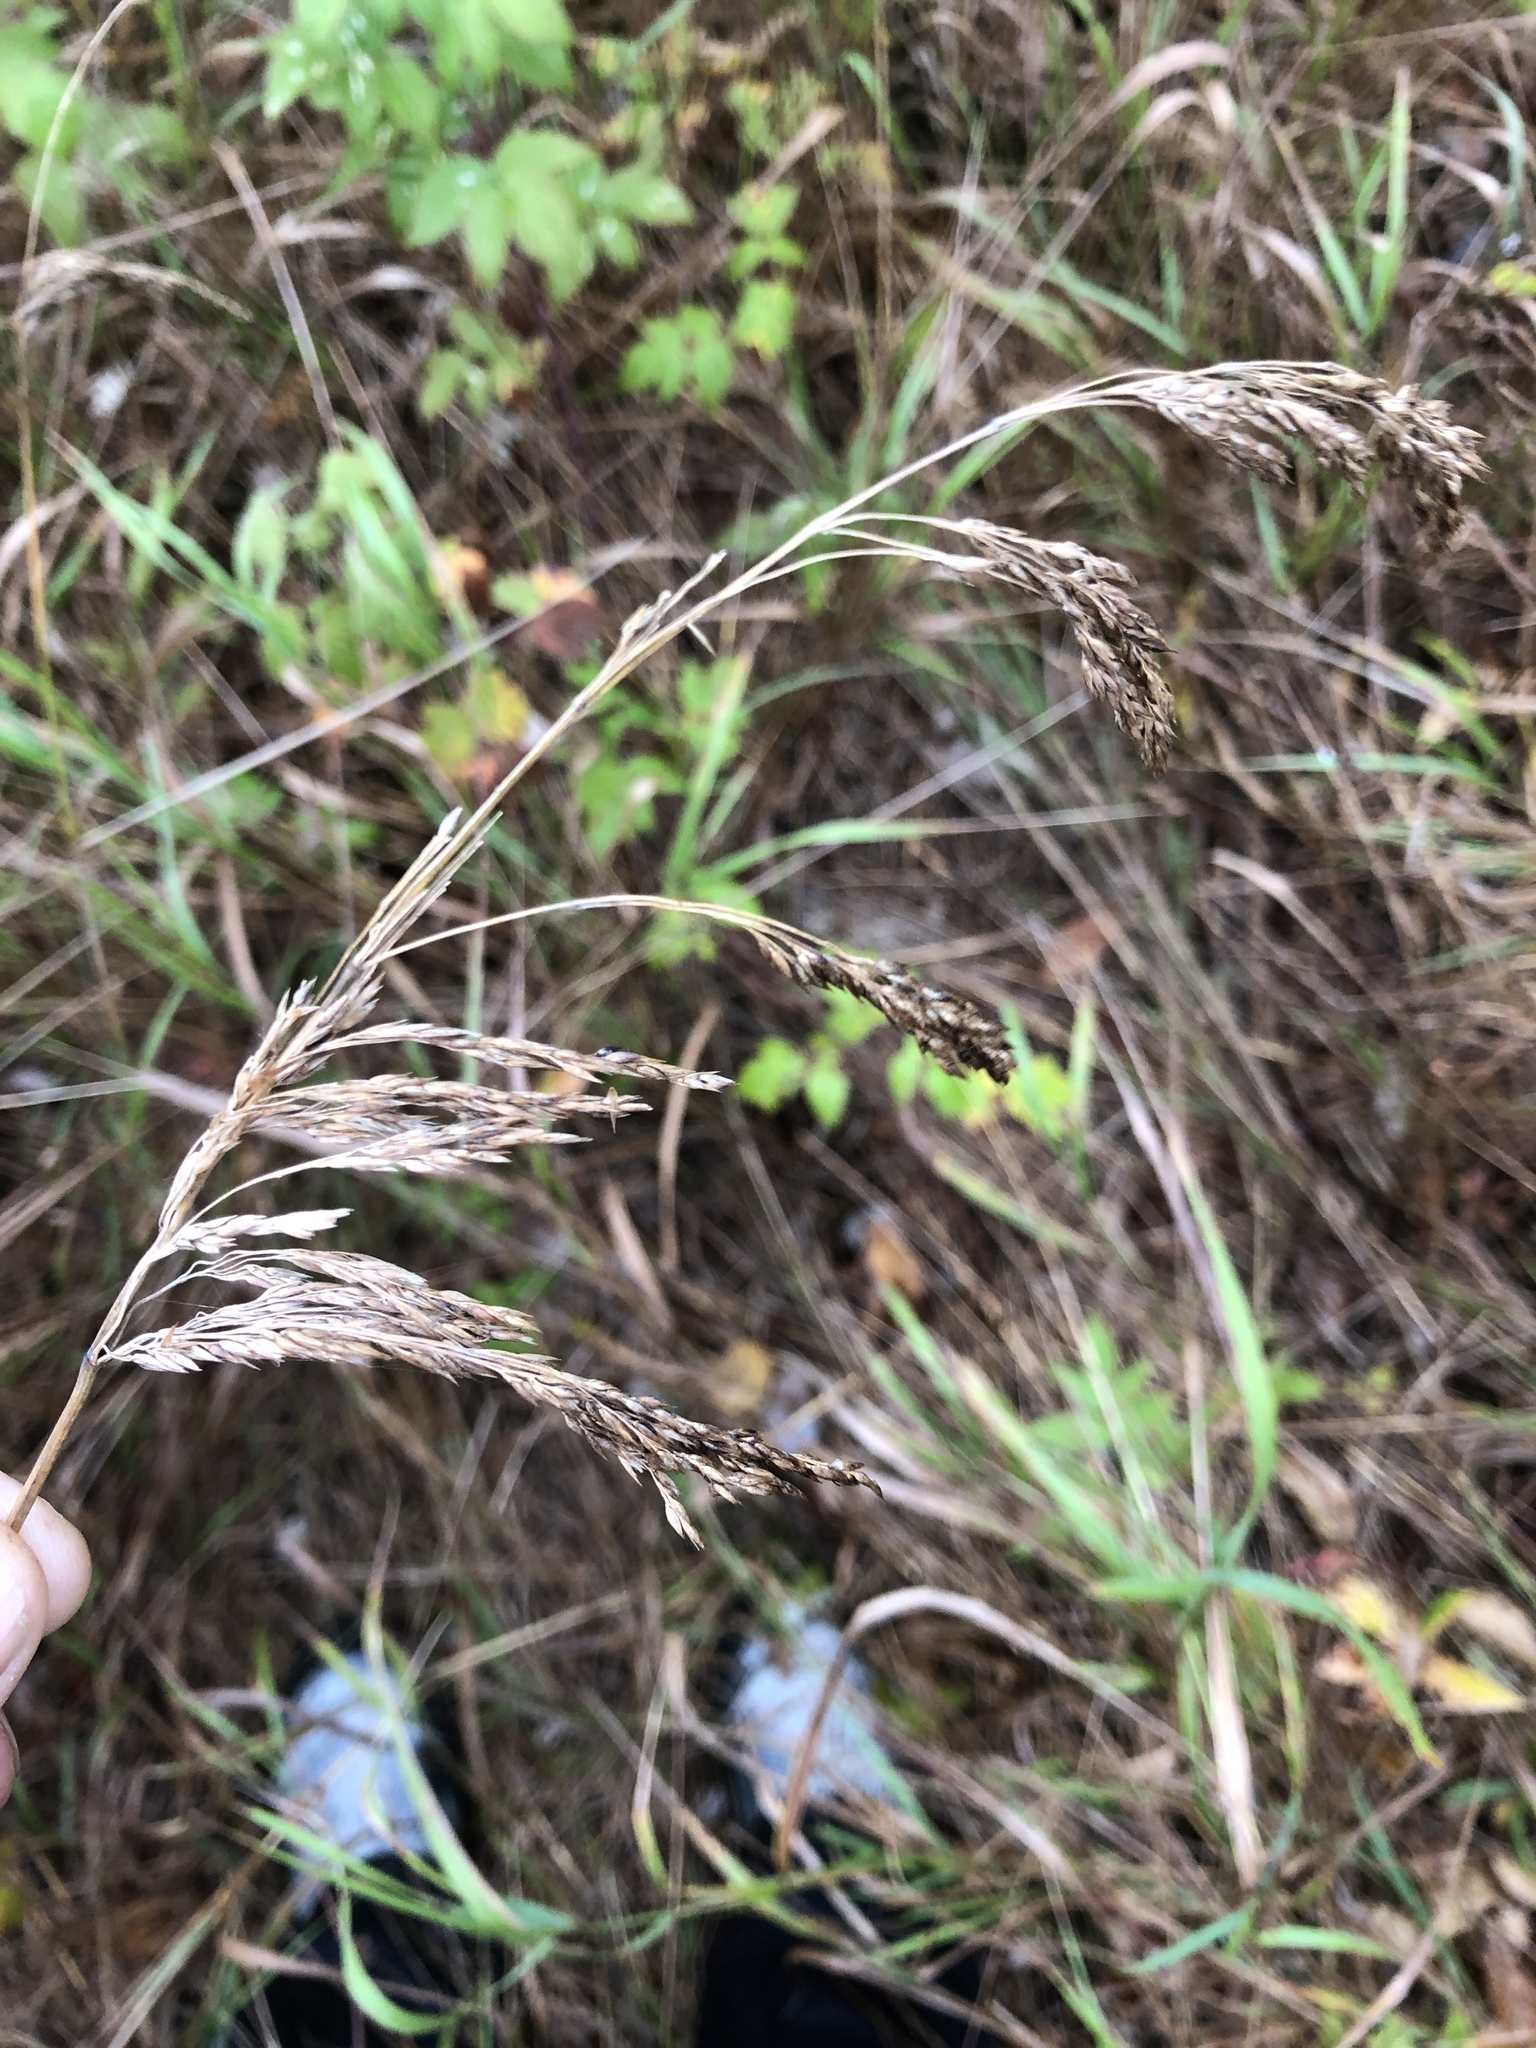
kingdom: Plantae
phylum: Tracheophyta
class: Liliopsida
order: Poales
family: Poaceae
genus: Calamagrostis
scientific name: Calamagrostis canadensis
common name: Canada bluejoint
